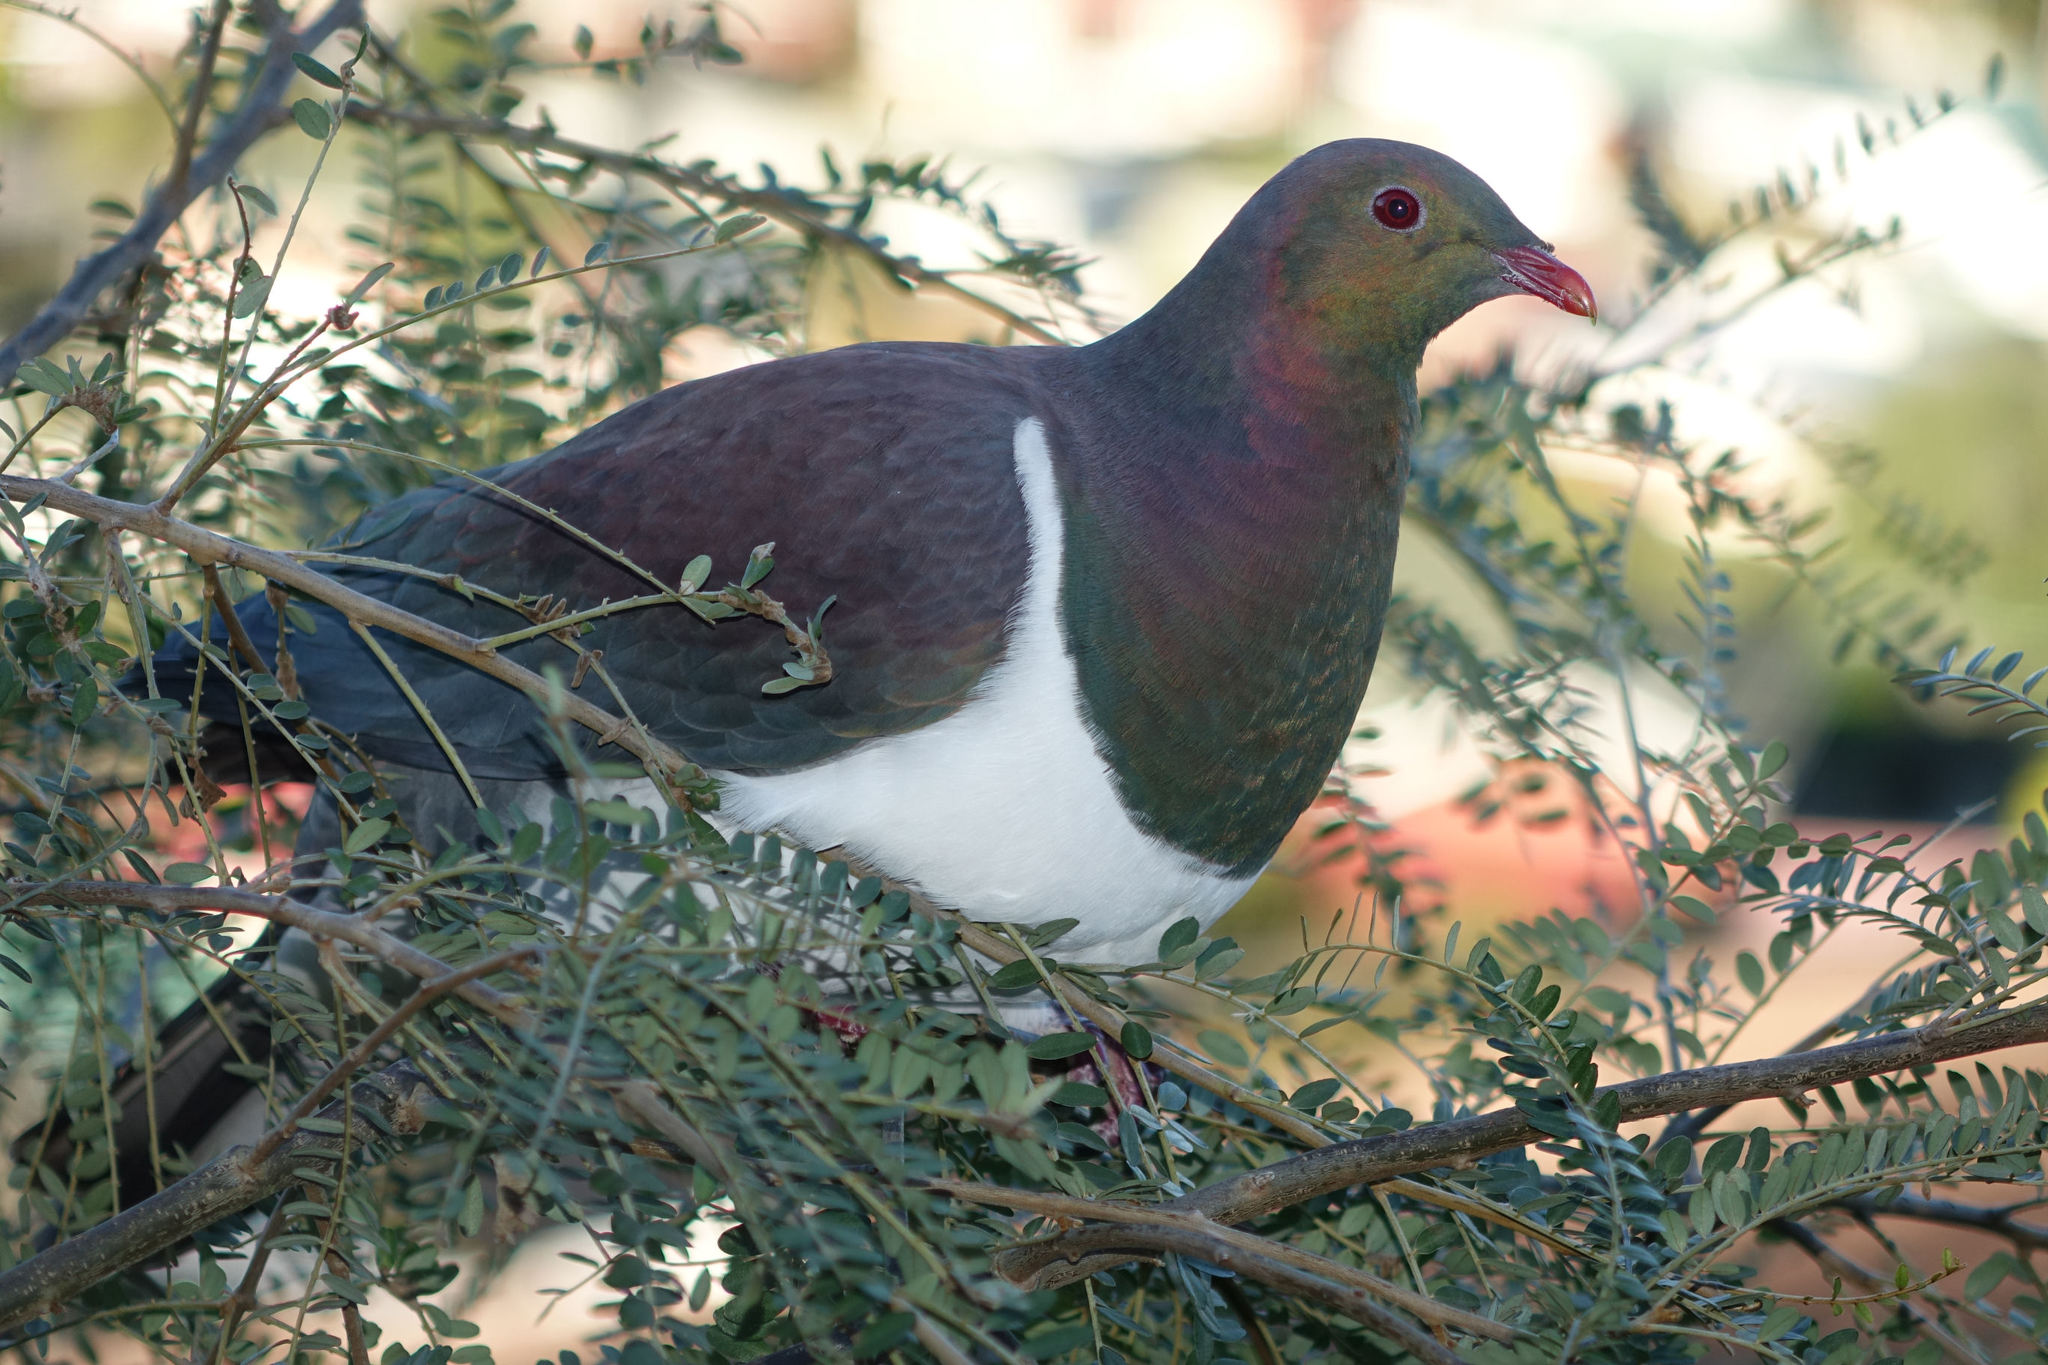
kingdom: Animalia
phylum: Chordata
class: Aves
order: Columbiformes
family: Columbidae
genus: Hemiphaga
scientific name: Hemiphaga novaeseelandiae
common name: New zealand pigeon
